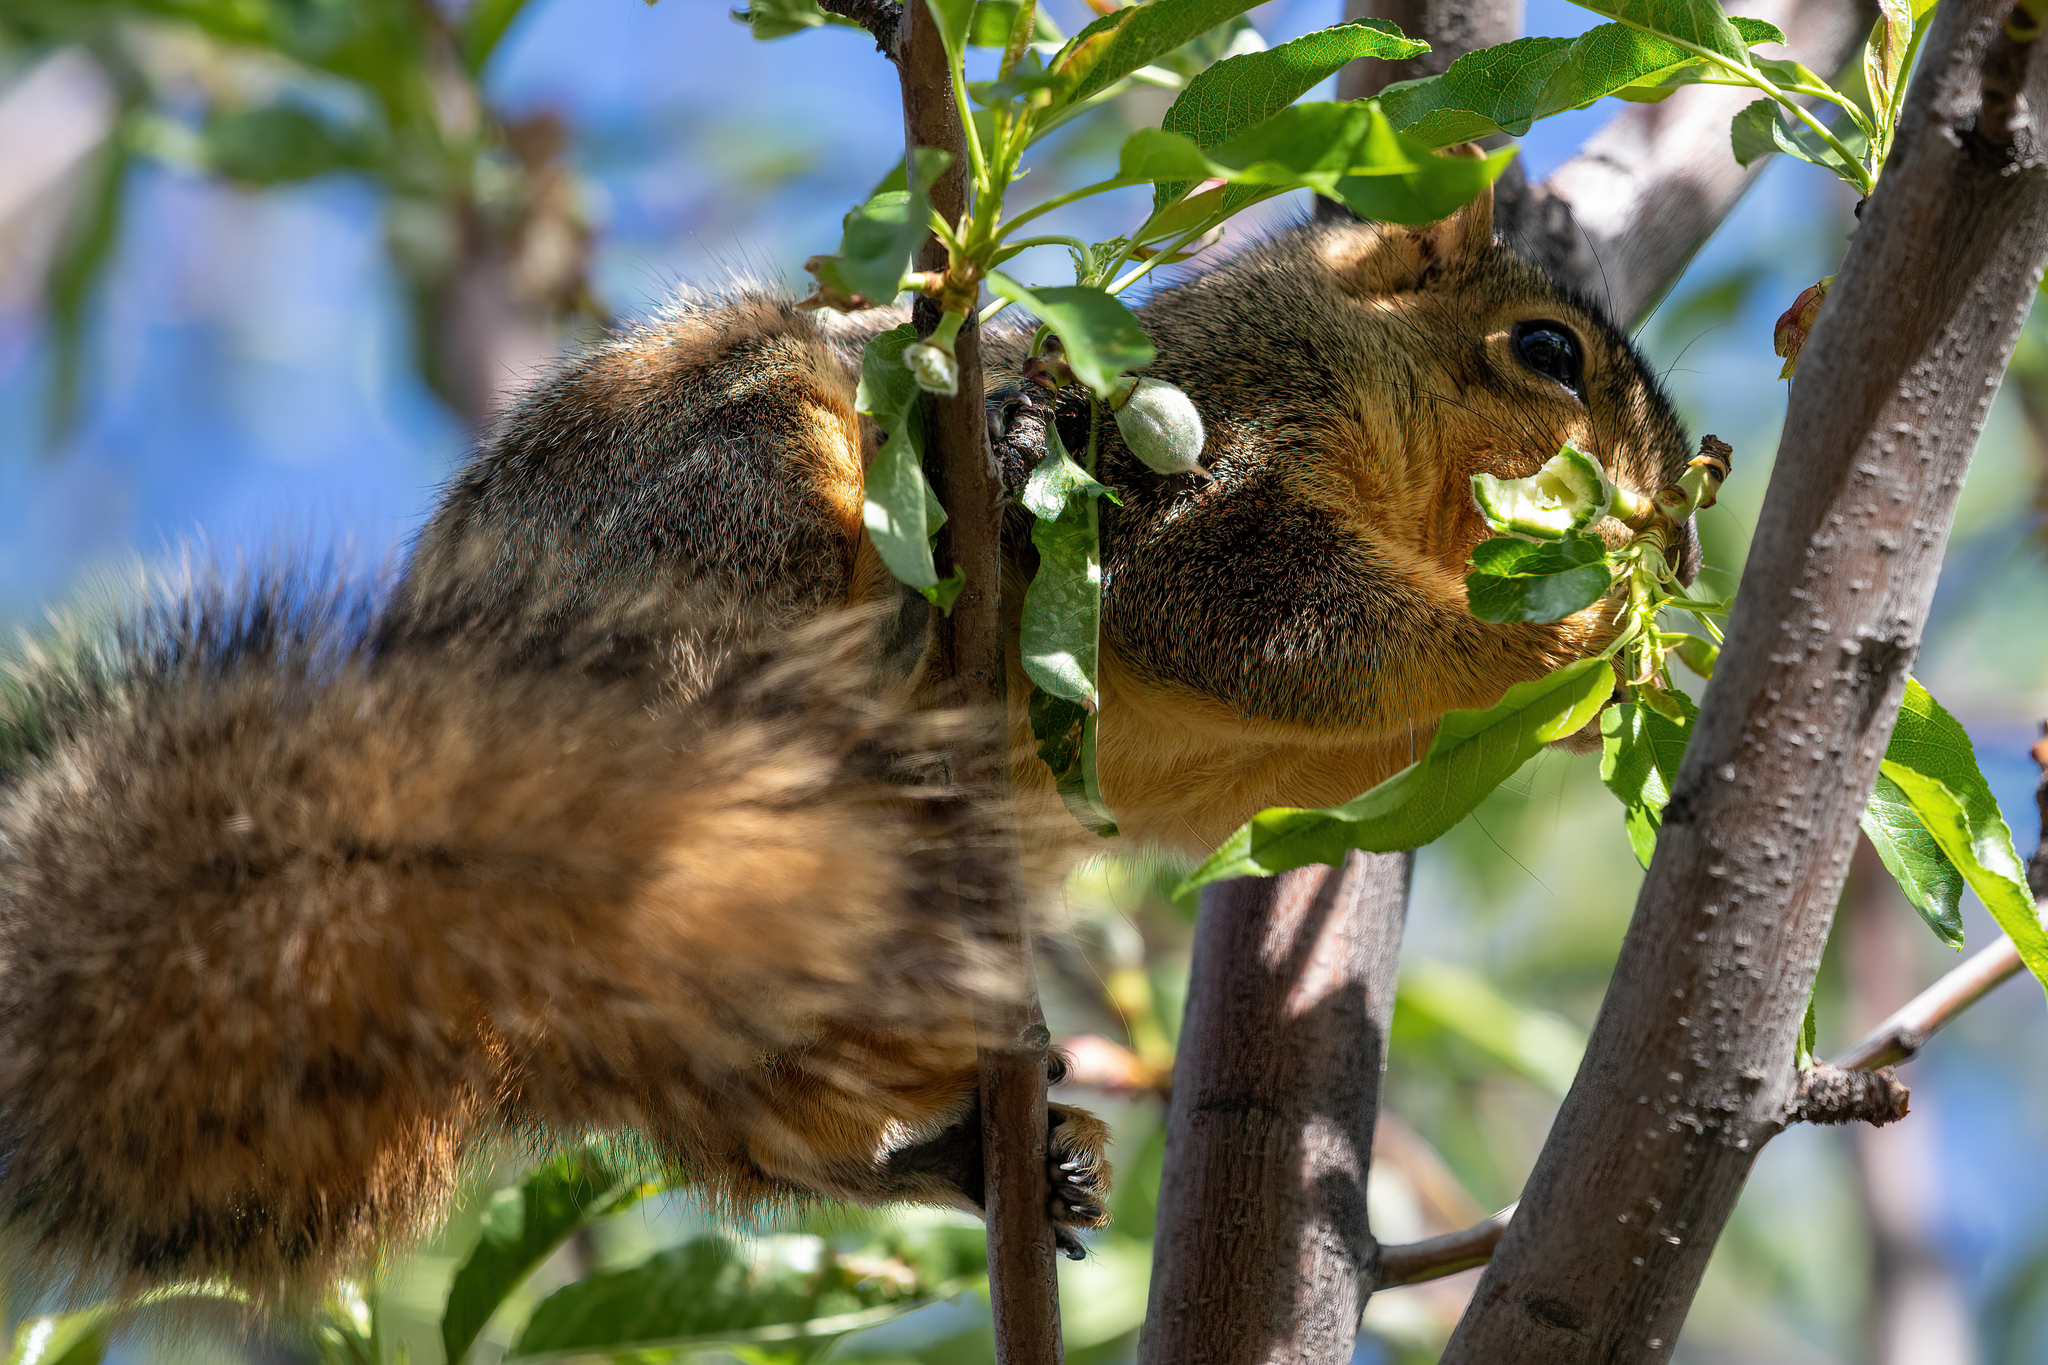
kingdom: Animalia
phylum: Chordata
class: Mammalia
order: Rodentia
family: Sciuridae
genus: Sciurus
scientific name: Sciurus niger
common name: Fox squirrel
